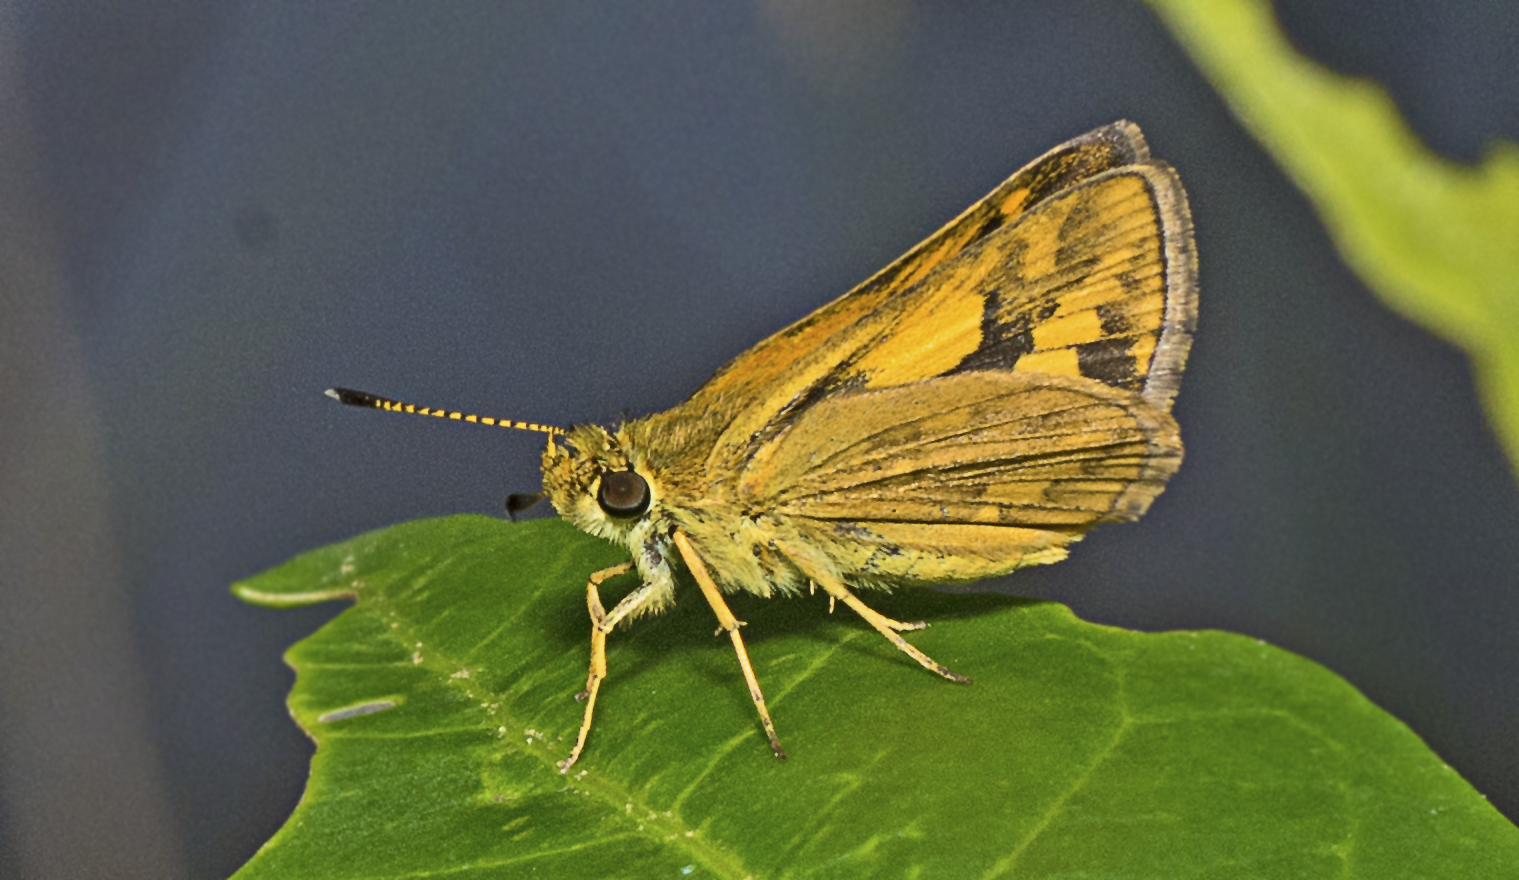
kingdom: Animalia
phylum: Arthropoda
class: Insecta
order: Lepidoptera
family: Hesperiidae
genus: Suniana
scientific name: Suniana sunias
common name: Wide-brand grass-dart
